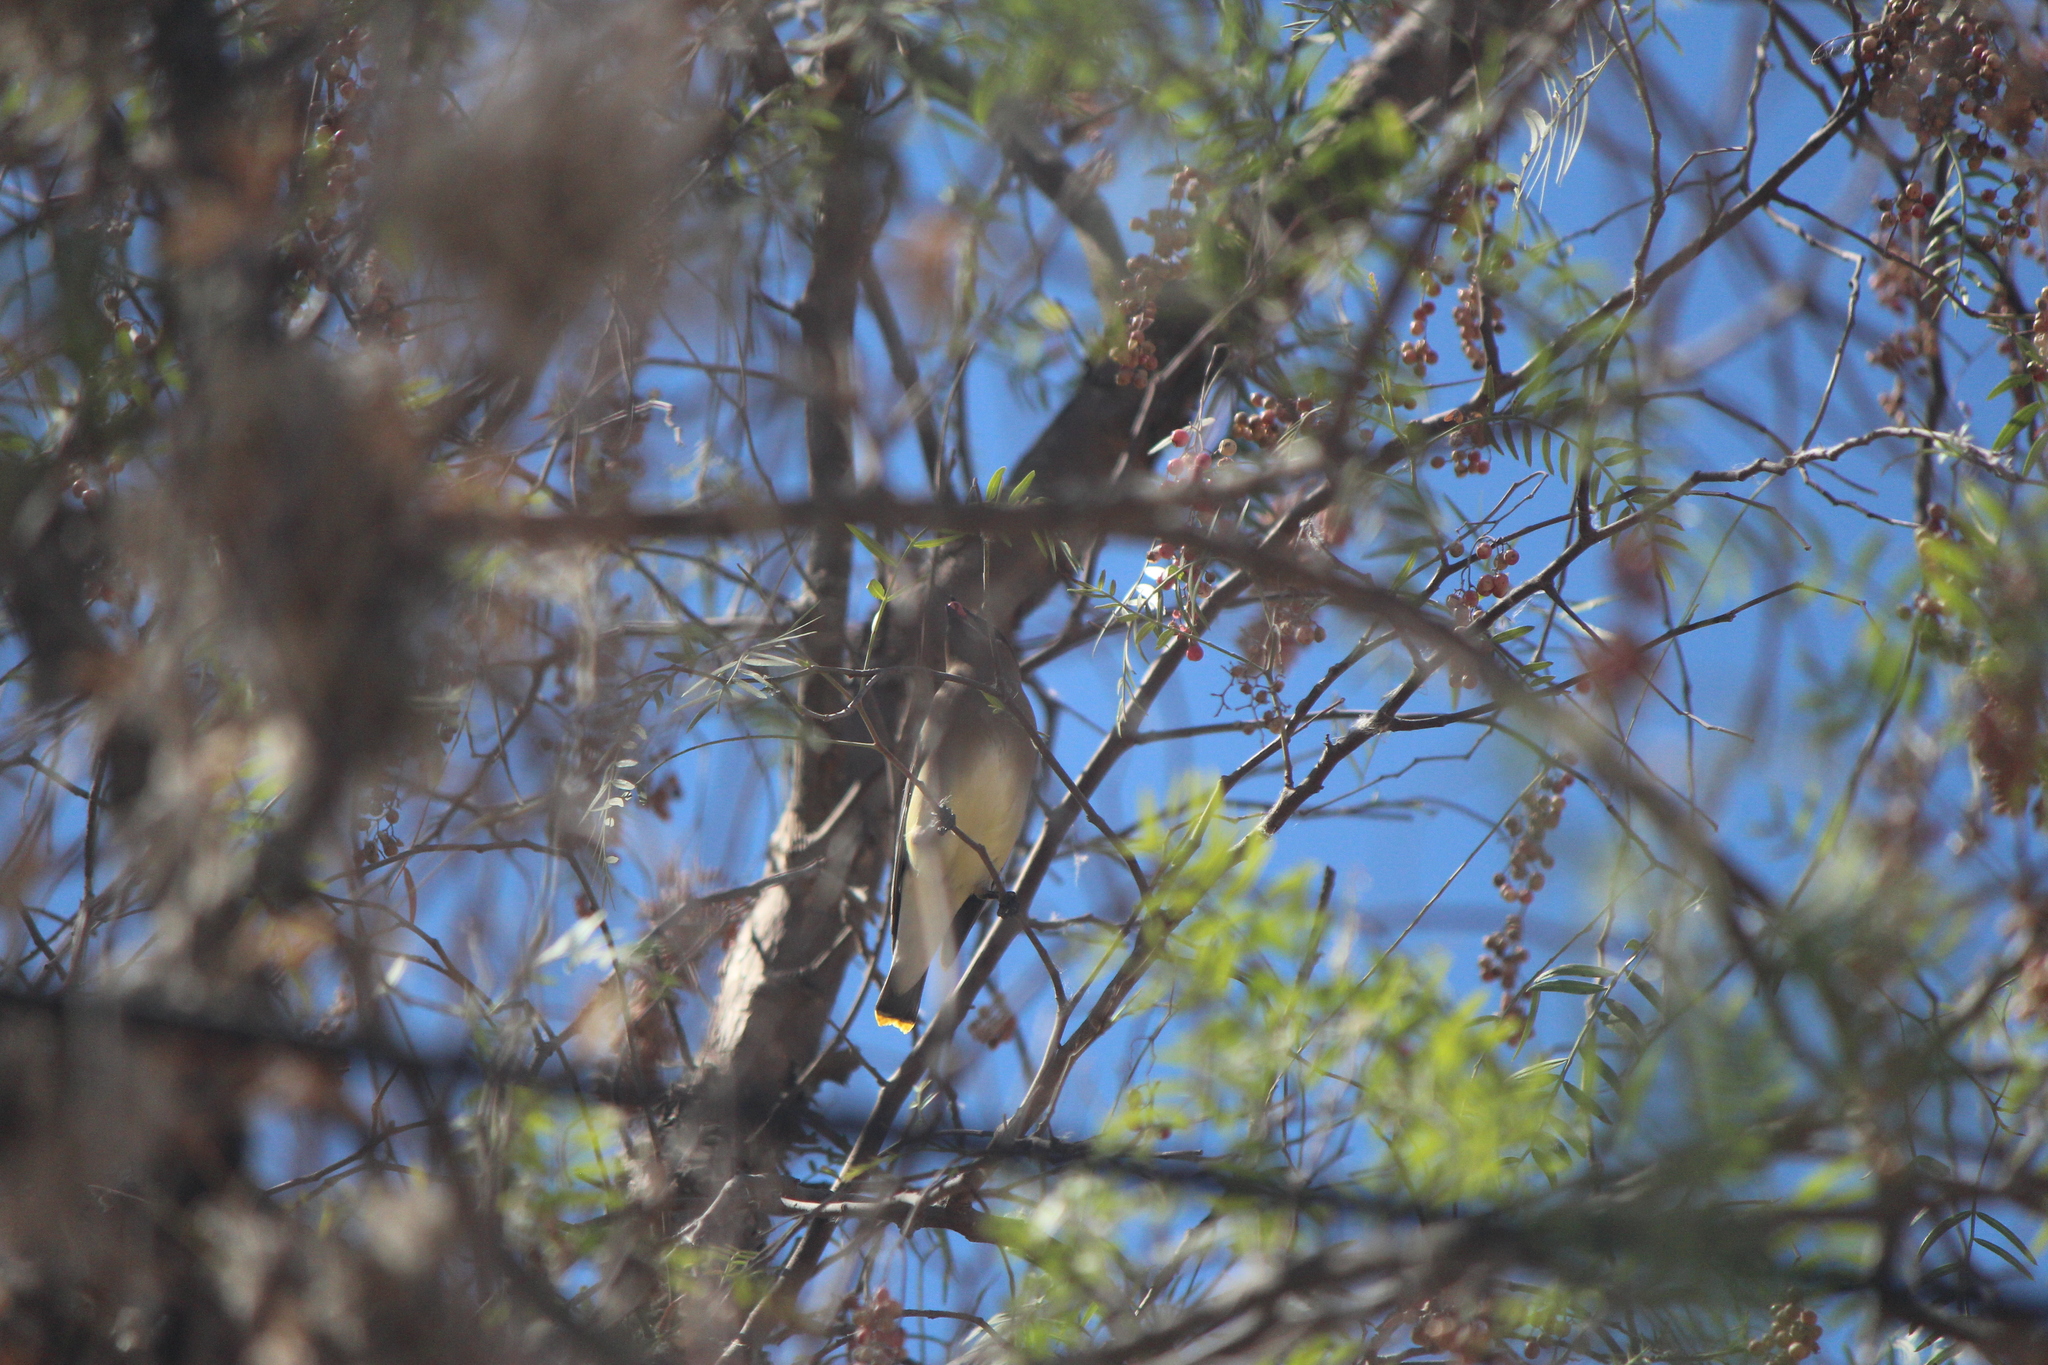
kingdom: Animalia
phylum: Chordata
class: Aves
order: Passeriformes
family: Bombycillidae
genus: Bombycilla
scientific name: Bombycilla cedrorum
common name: Cedar waxwing
